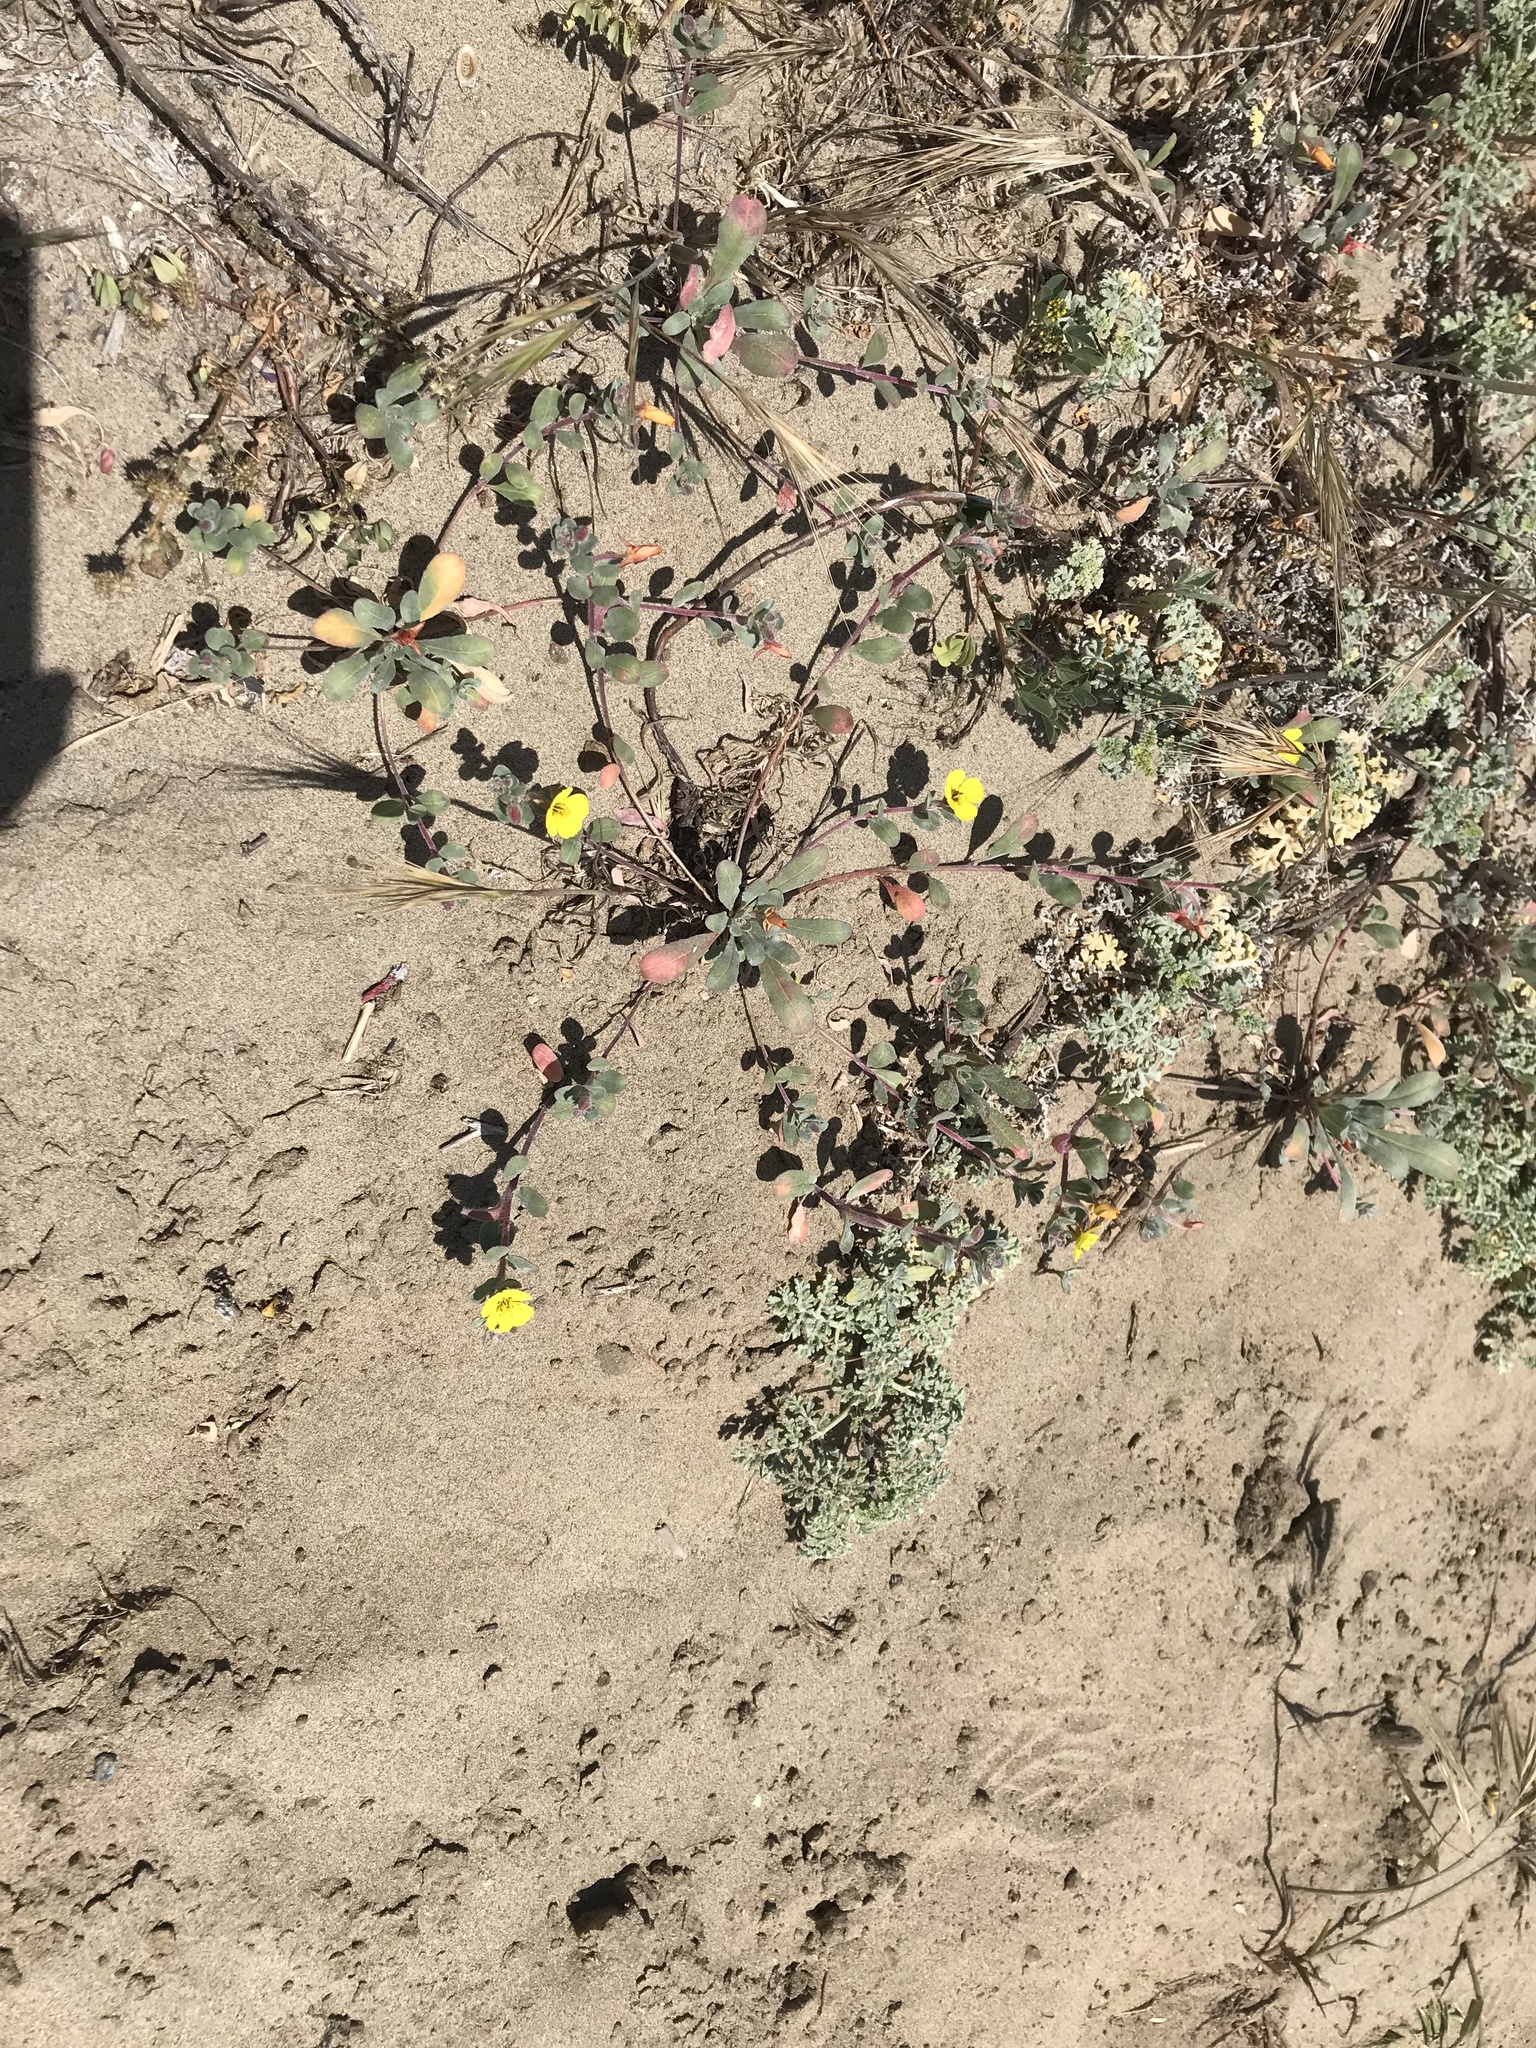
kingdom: Plantae
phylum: Tracheophyta
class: Magnoliopsida
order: Myrtales
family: Onagraceae
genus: Camissoniopsis
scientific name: Camissoniopsis cheiranthifolia
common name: Beach suncup
